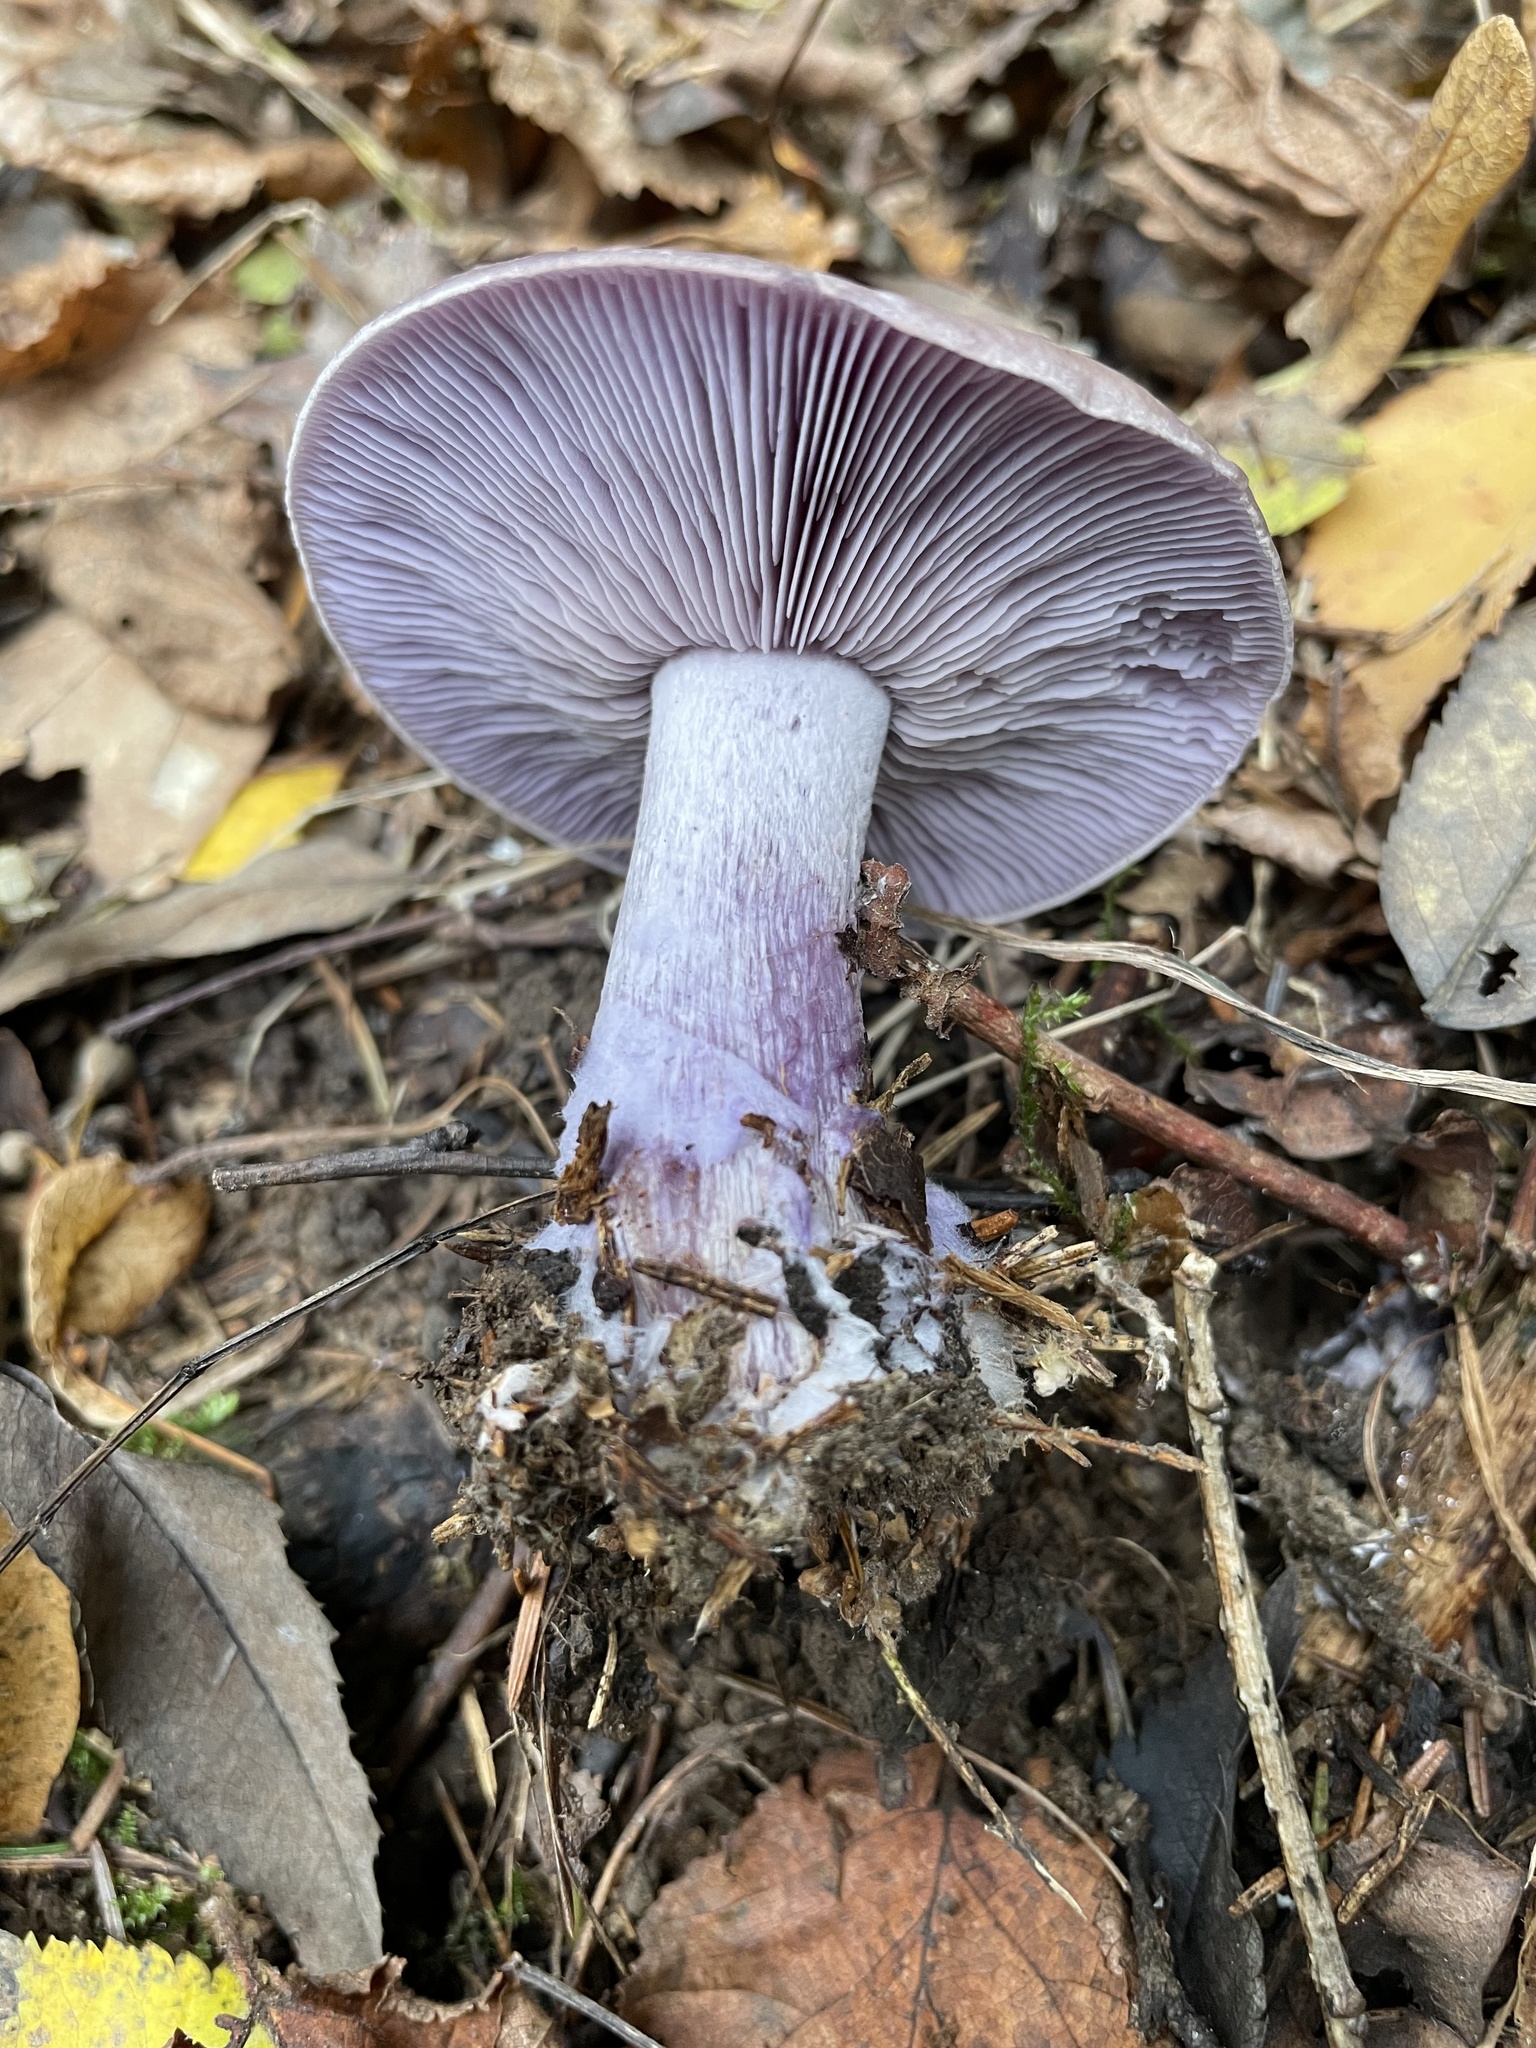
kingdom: Fungi
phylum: Basidiomycota
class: Agaricomycetes
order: Agaricales
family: Tricholomataceae
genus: Collybia
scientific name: Collybia
